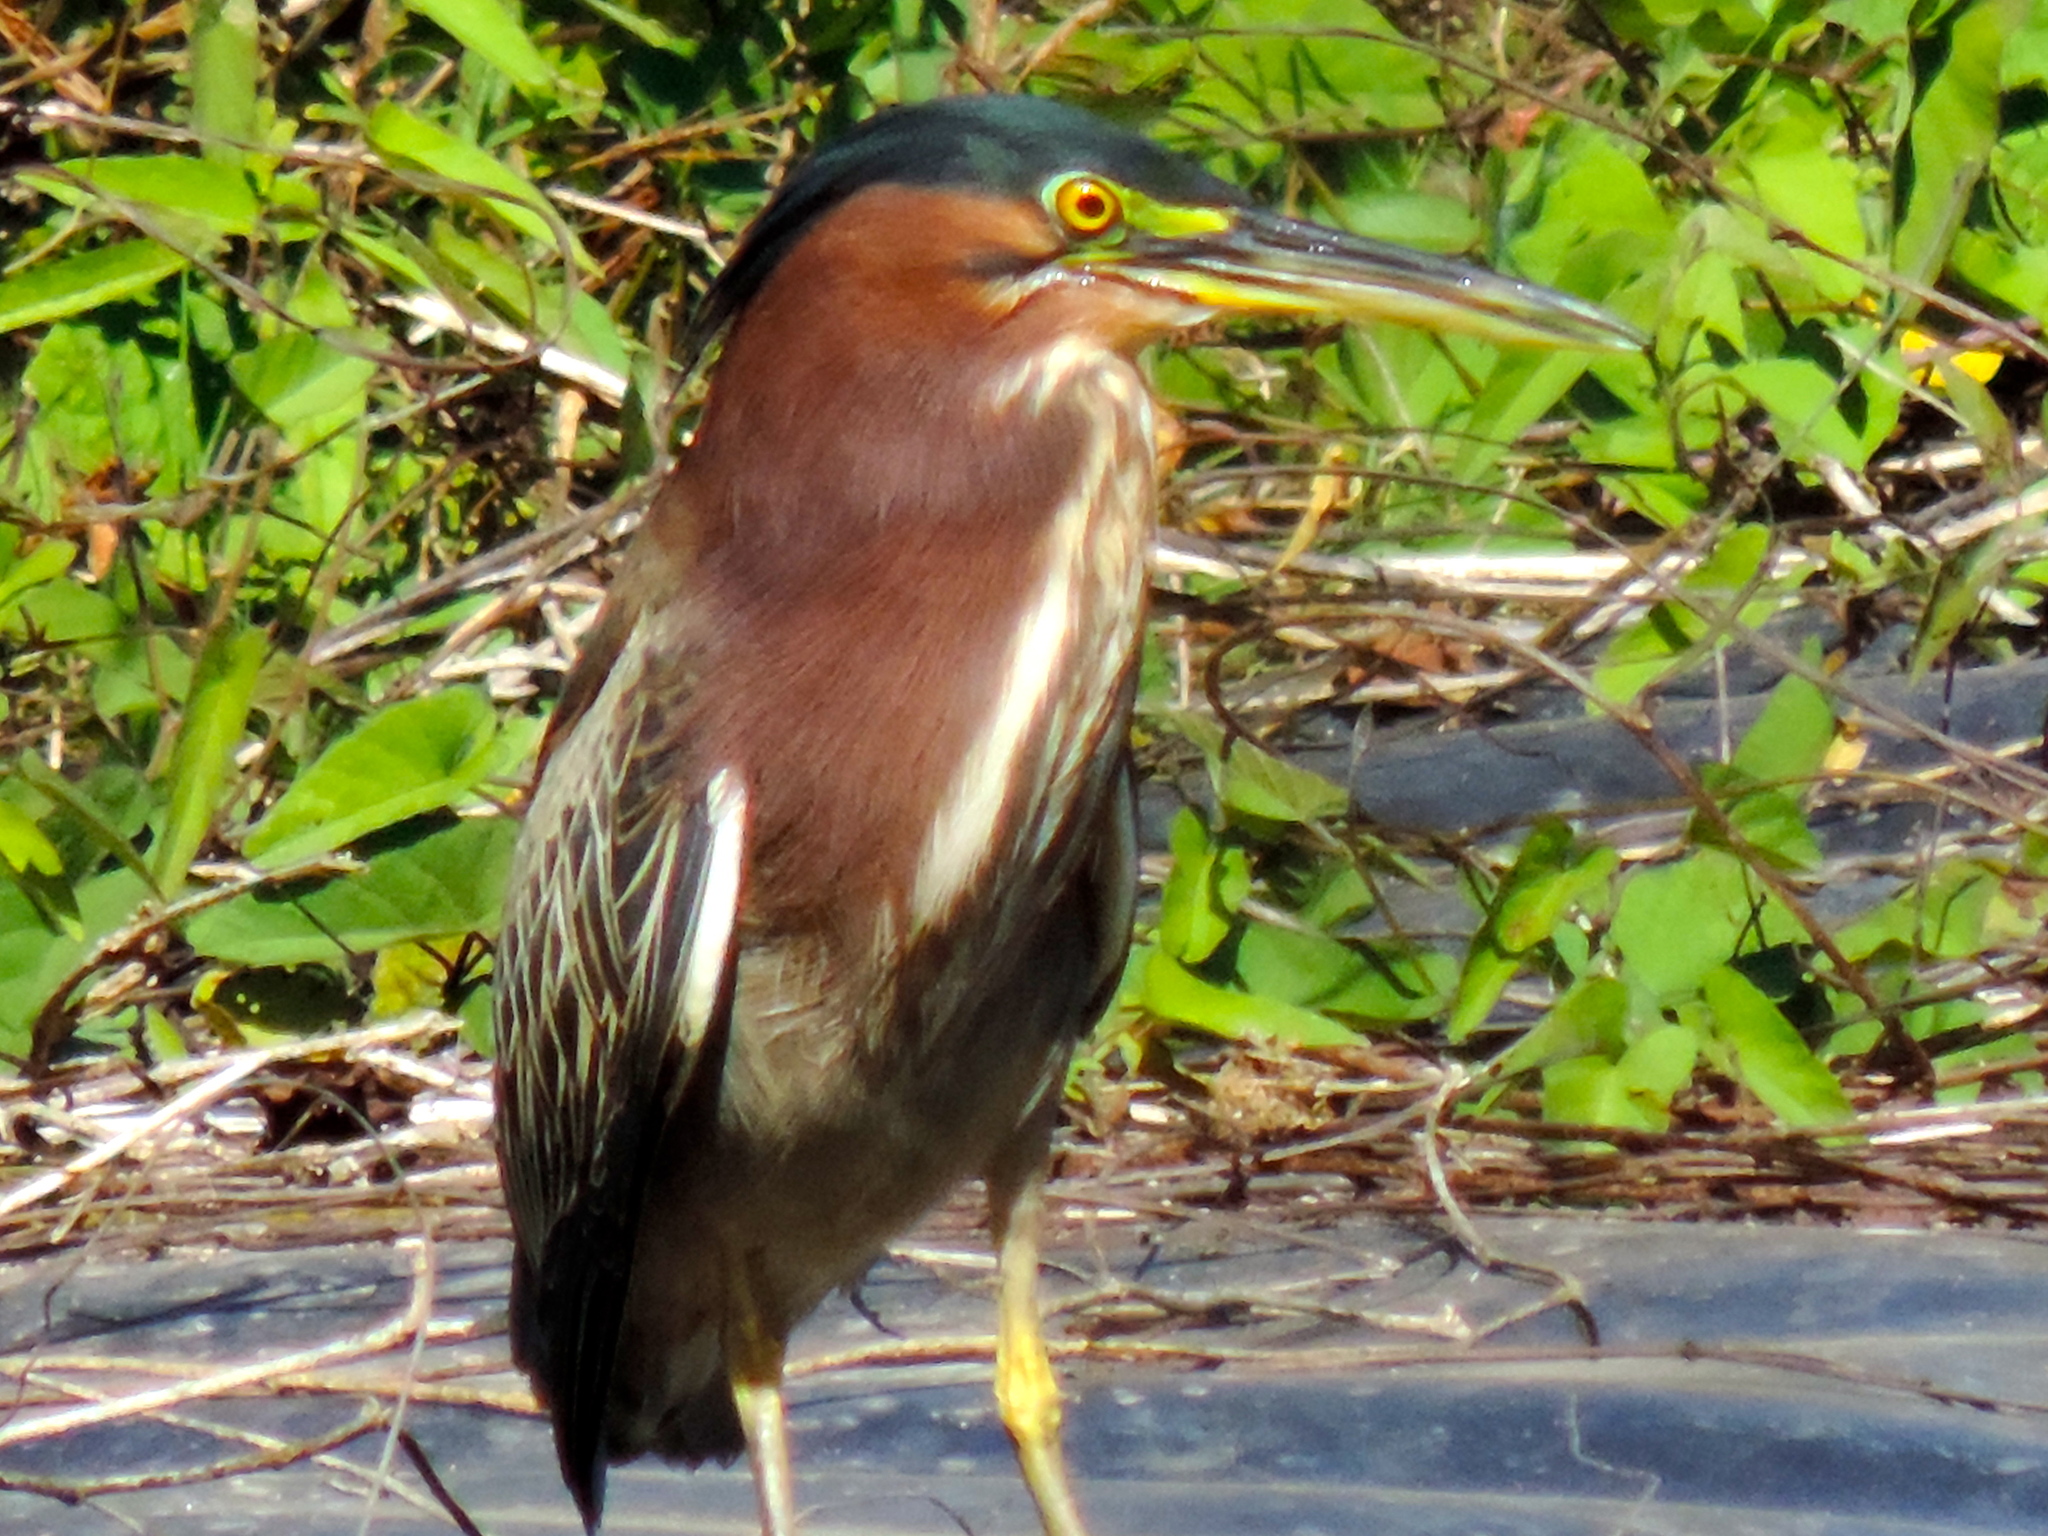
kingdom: Animalia
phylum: Chordata
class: Aves
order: Pelecaniformes
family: Ardeidae
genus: Butorides
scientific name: Butorides virescens
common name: Green heron
